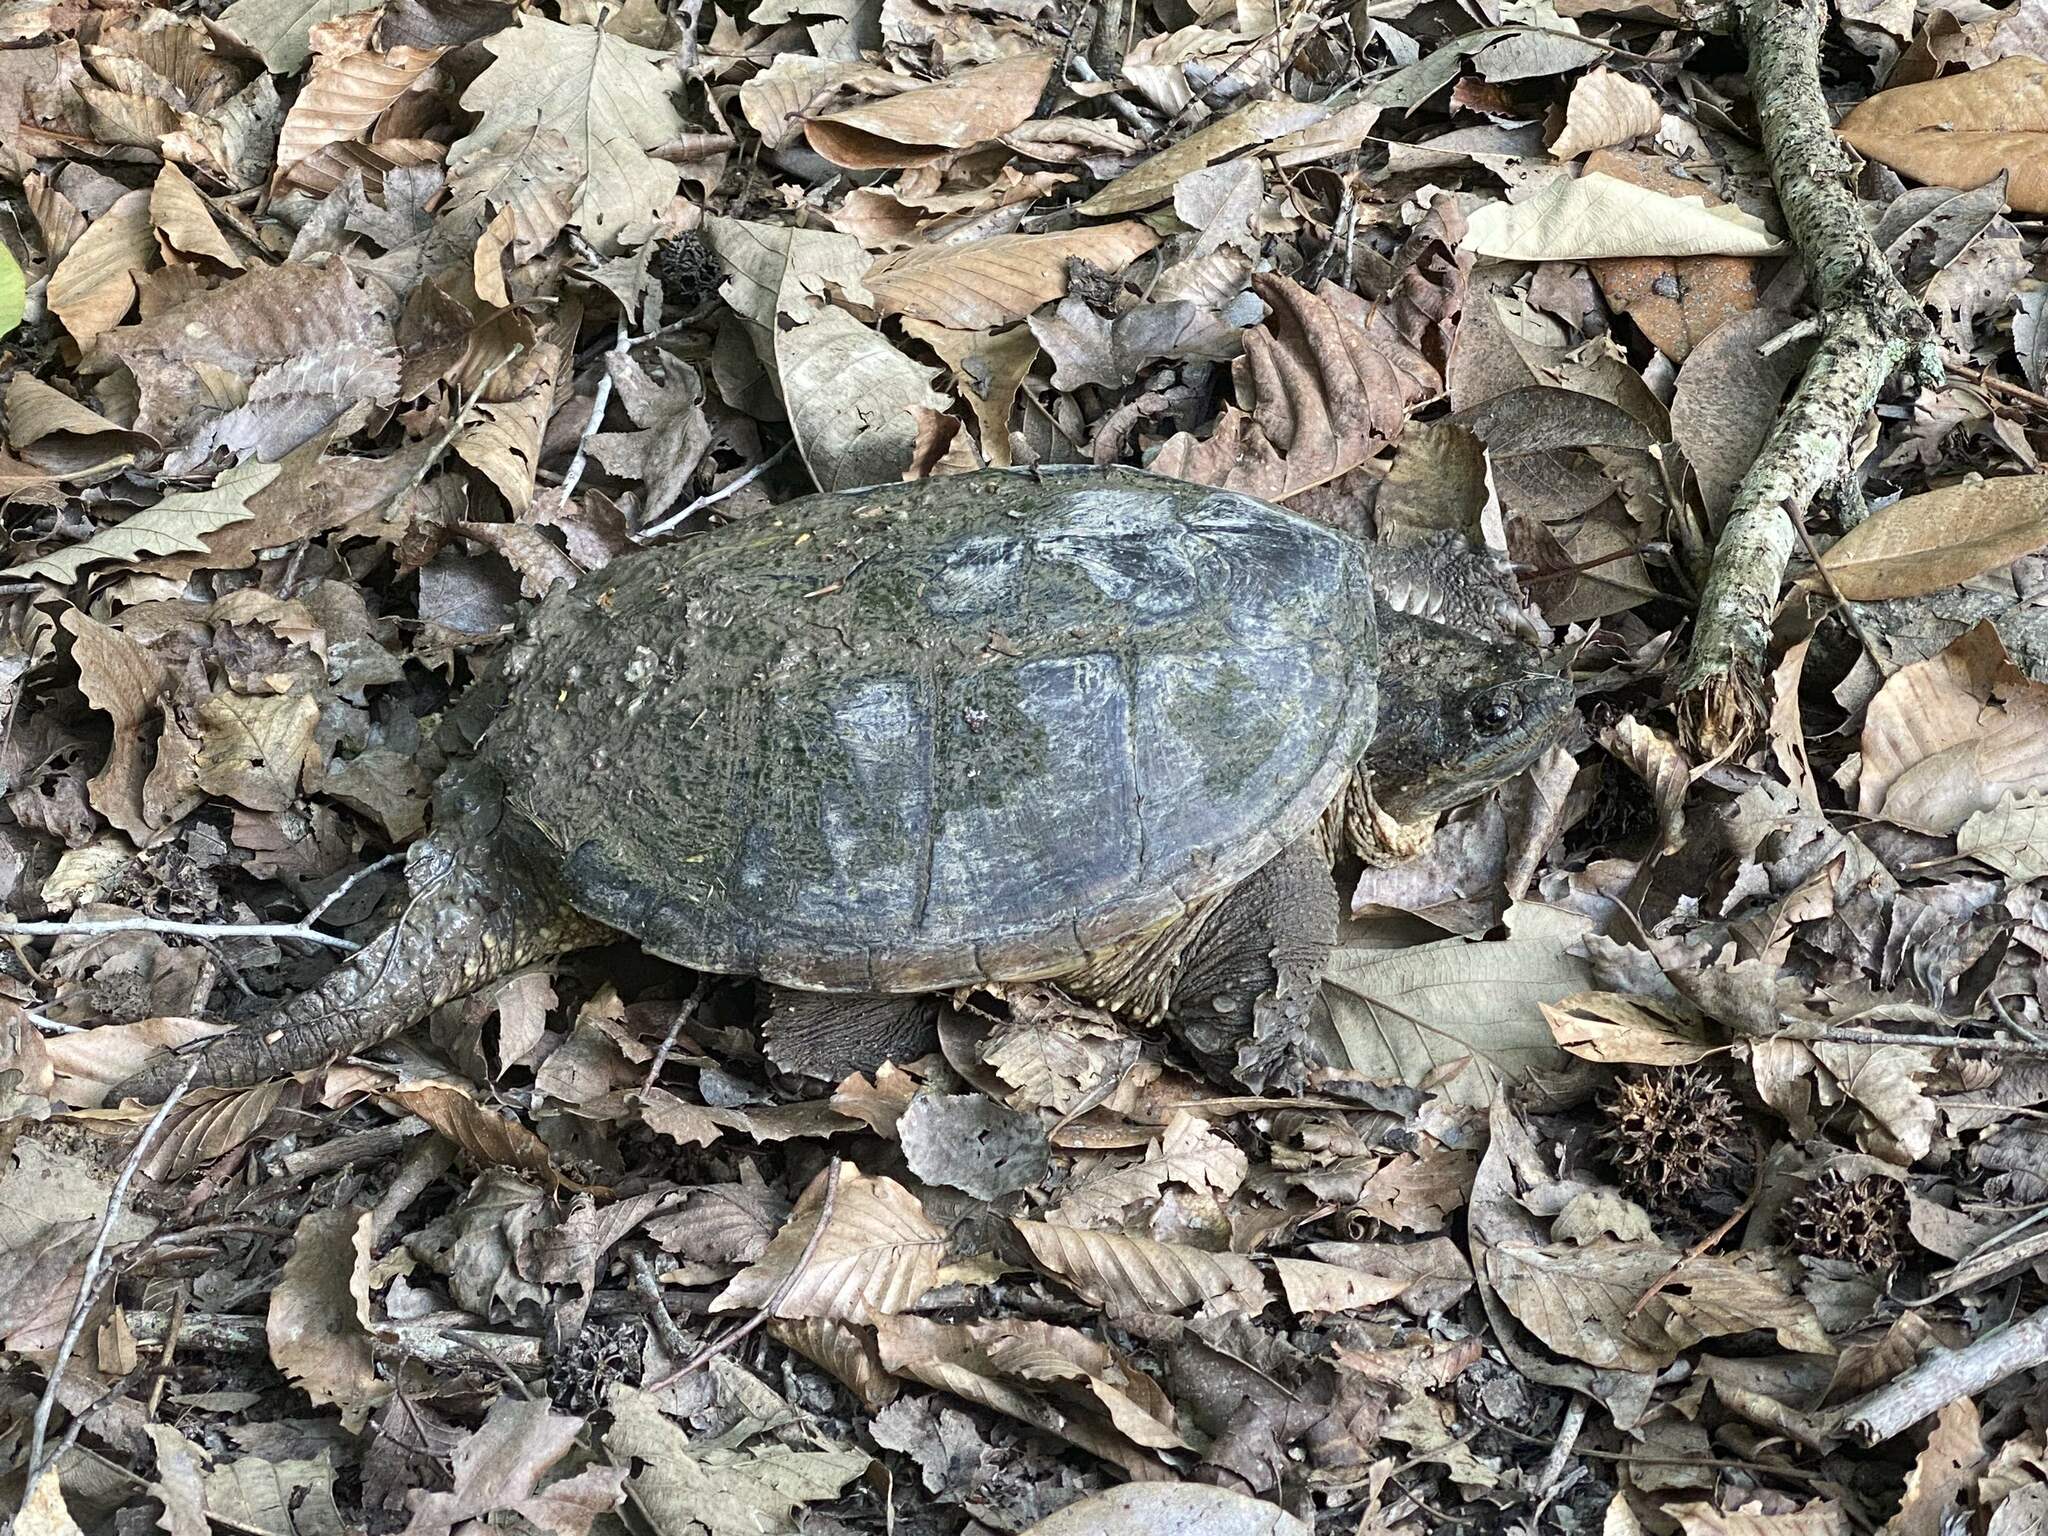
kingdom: Animalia
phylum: Chordata
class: Testudines
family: Chelydridae
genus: Chelydra
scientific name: Chelydra serpentina
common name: Common snapping turtle
